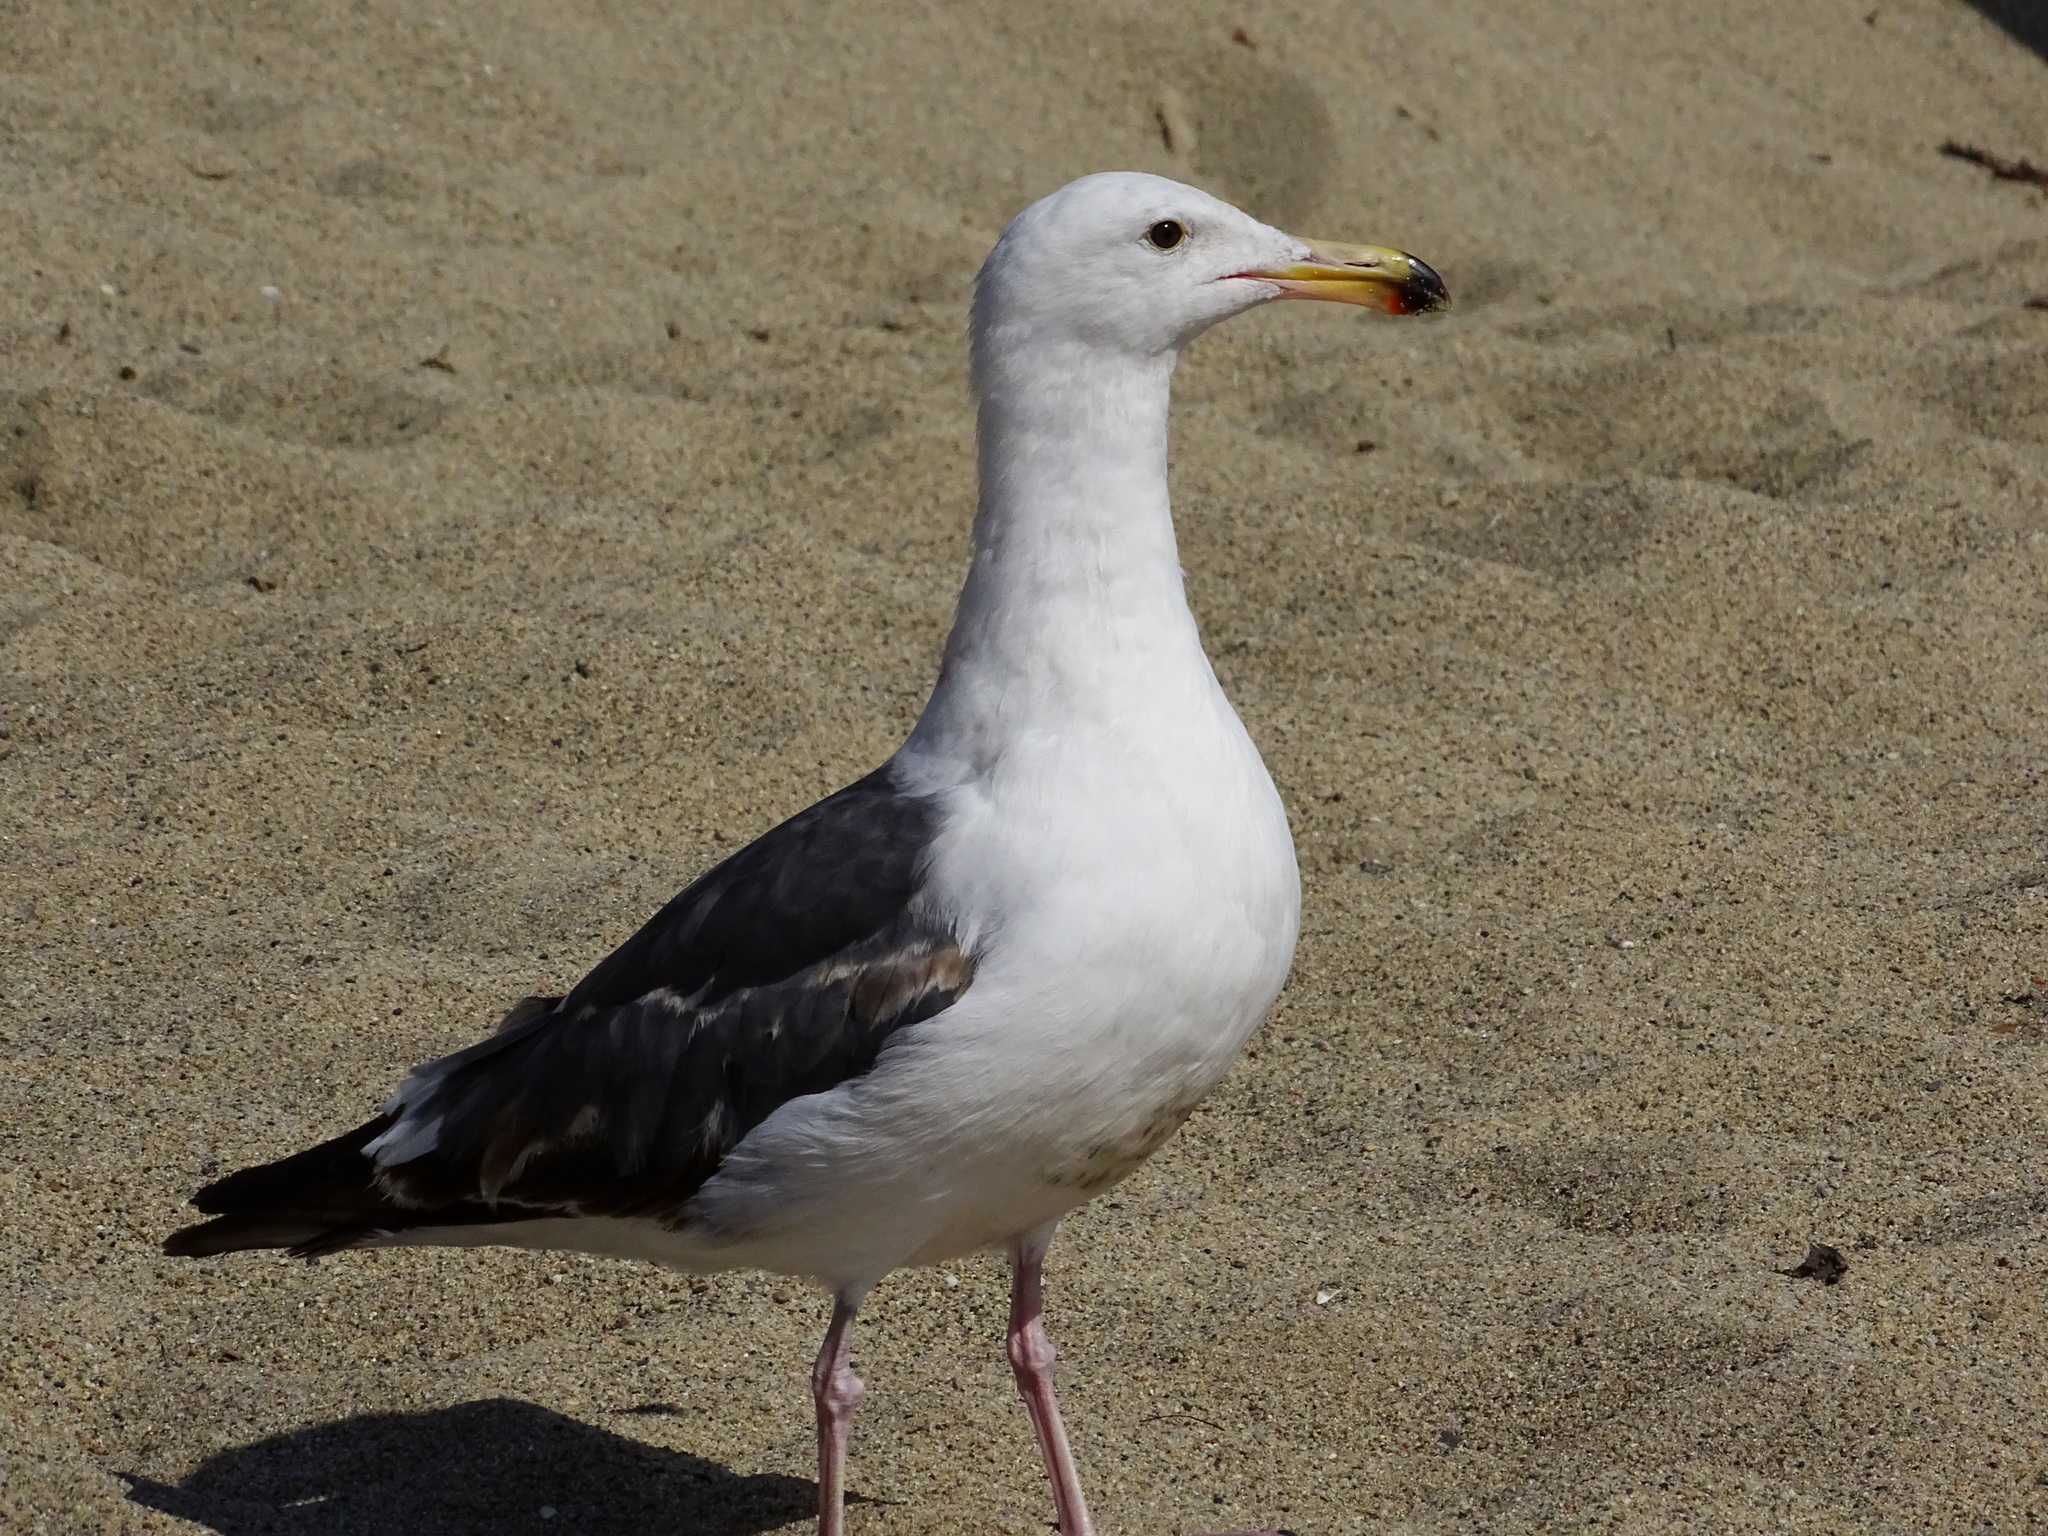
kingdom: Animalia
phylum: Chordata
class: Aves
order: Charadriiformes
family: Laridae
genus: Larus
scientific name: Larus occidentalis
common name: Western gull
